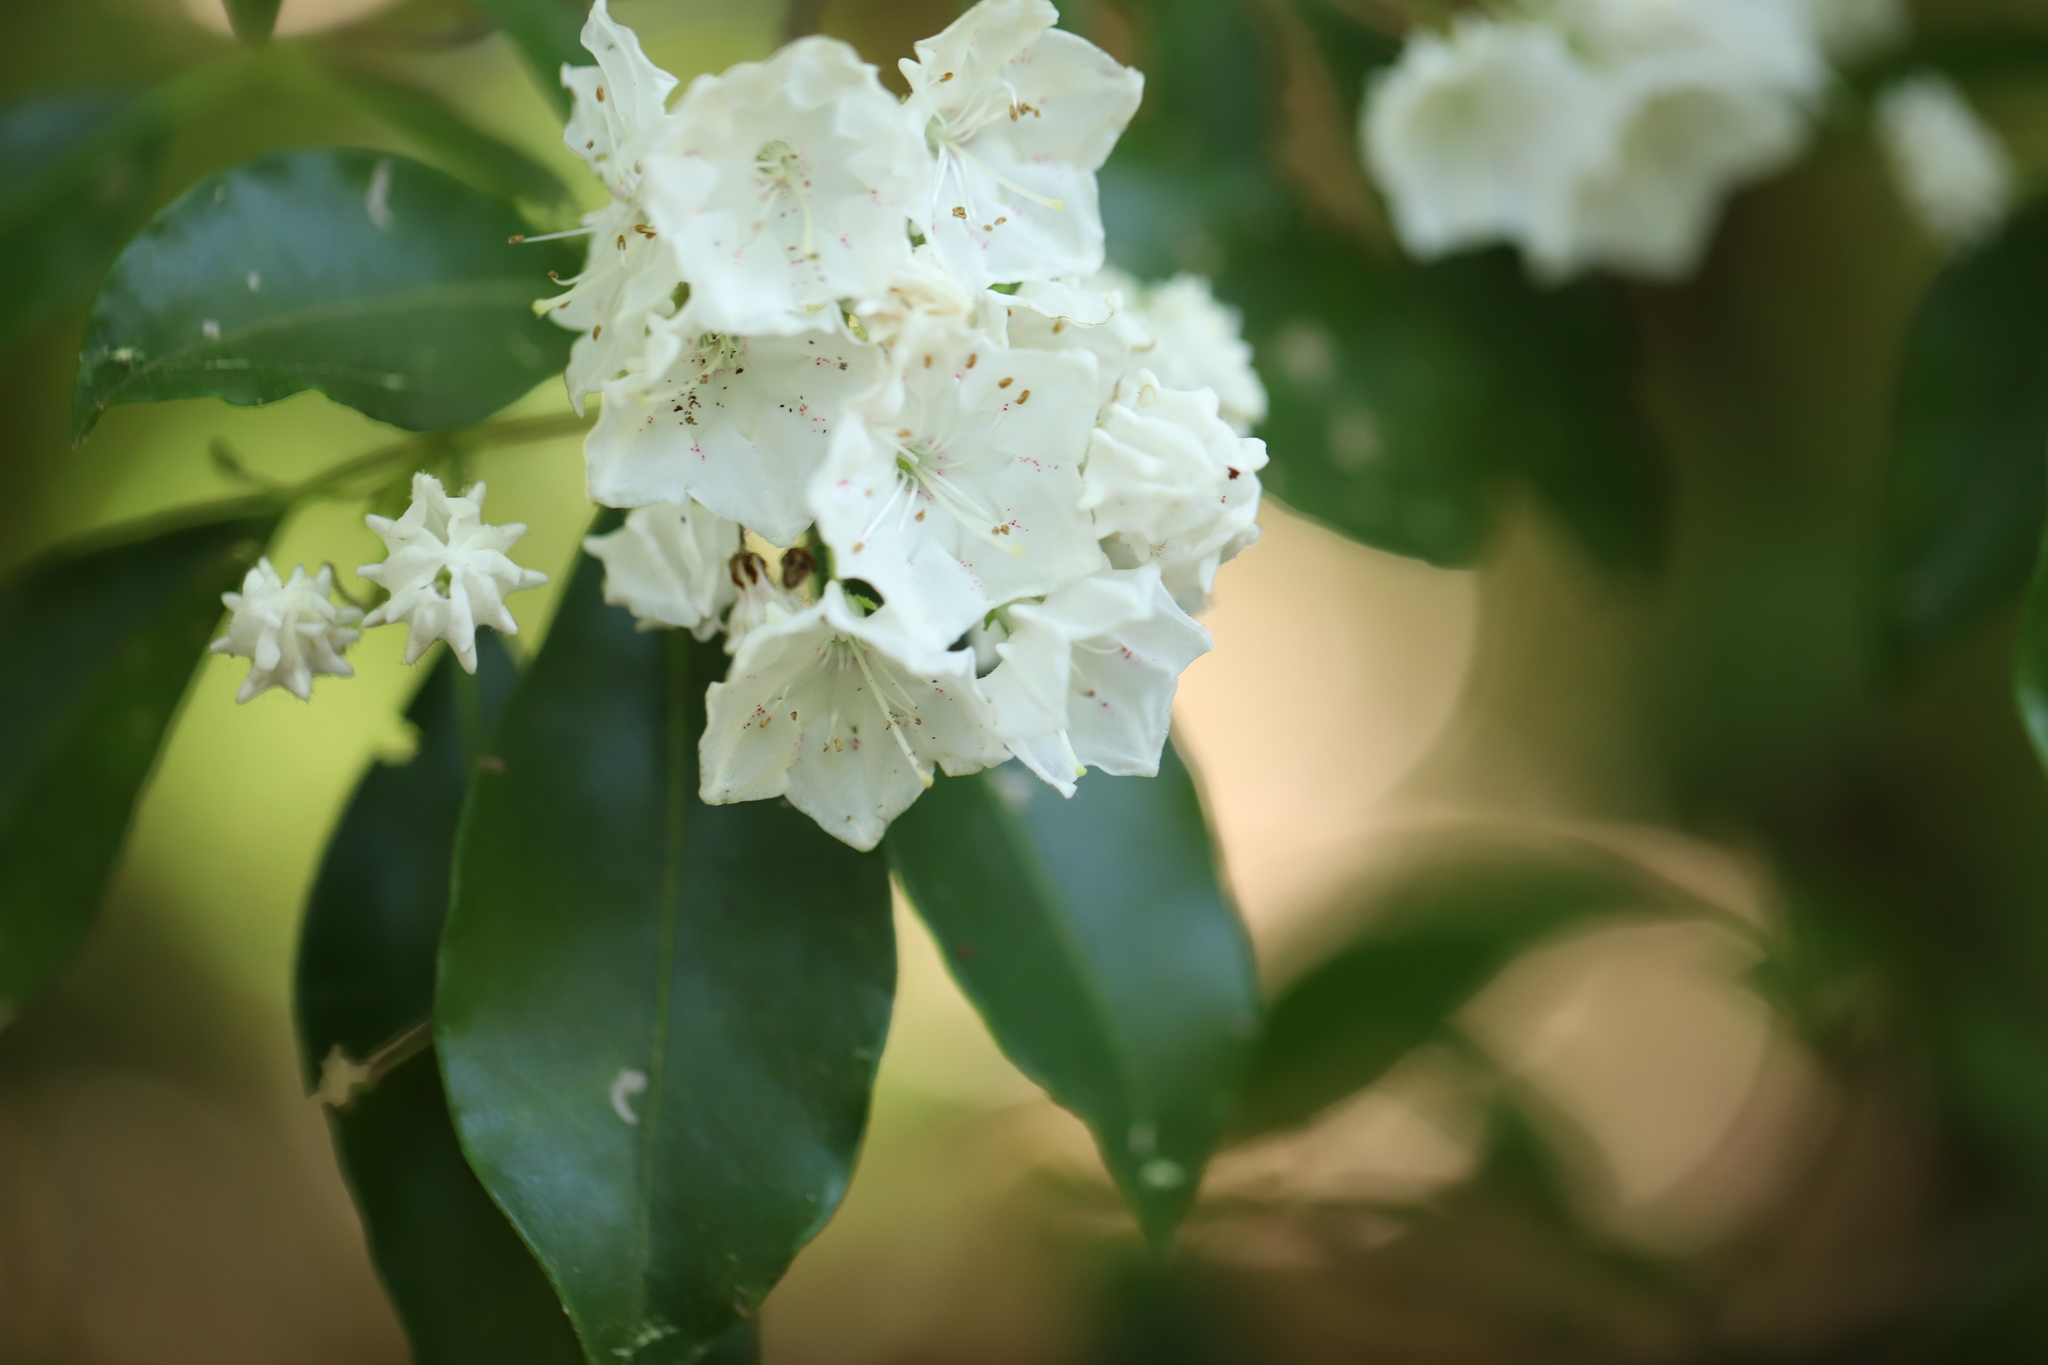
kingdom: Plantae
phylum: Tracheophyta
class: Magnoliopsida
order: Ericales
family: Ericaceae
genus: Kalmia
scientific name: Kalmia latifolia
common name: Mountain-laurel
